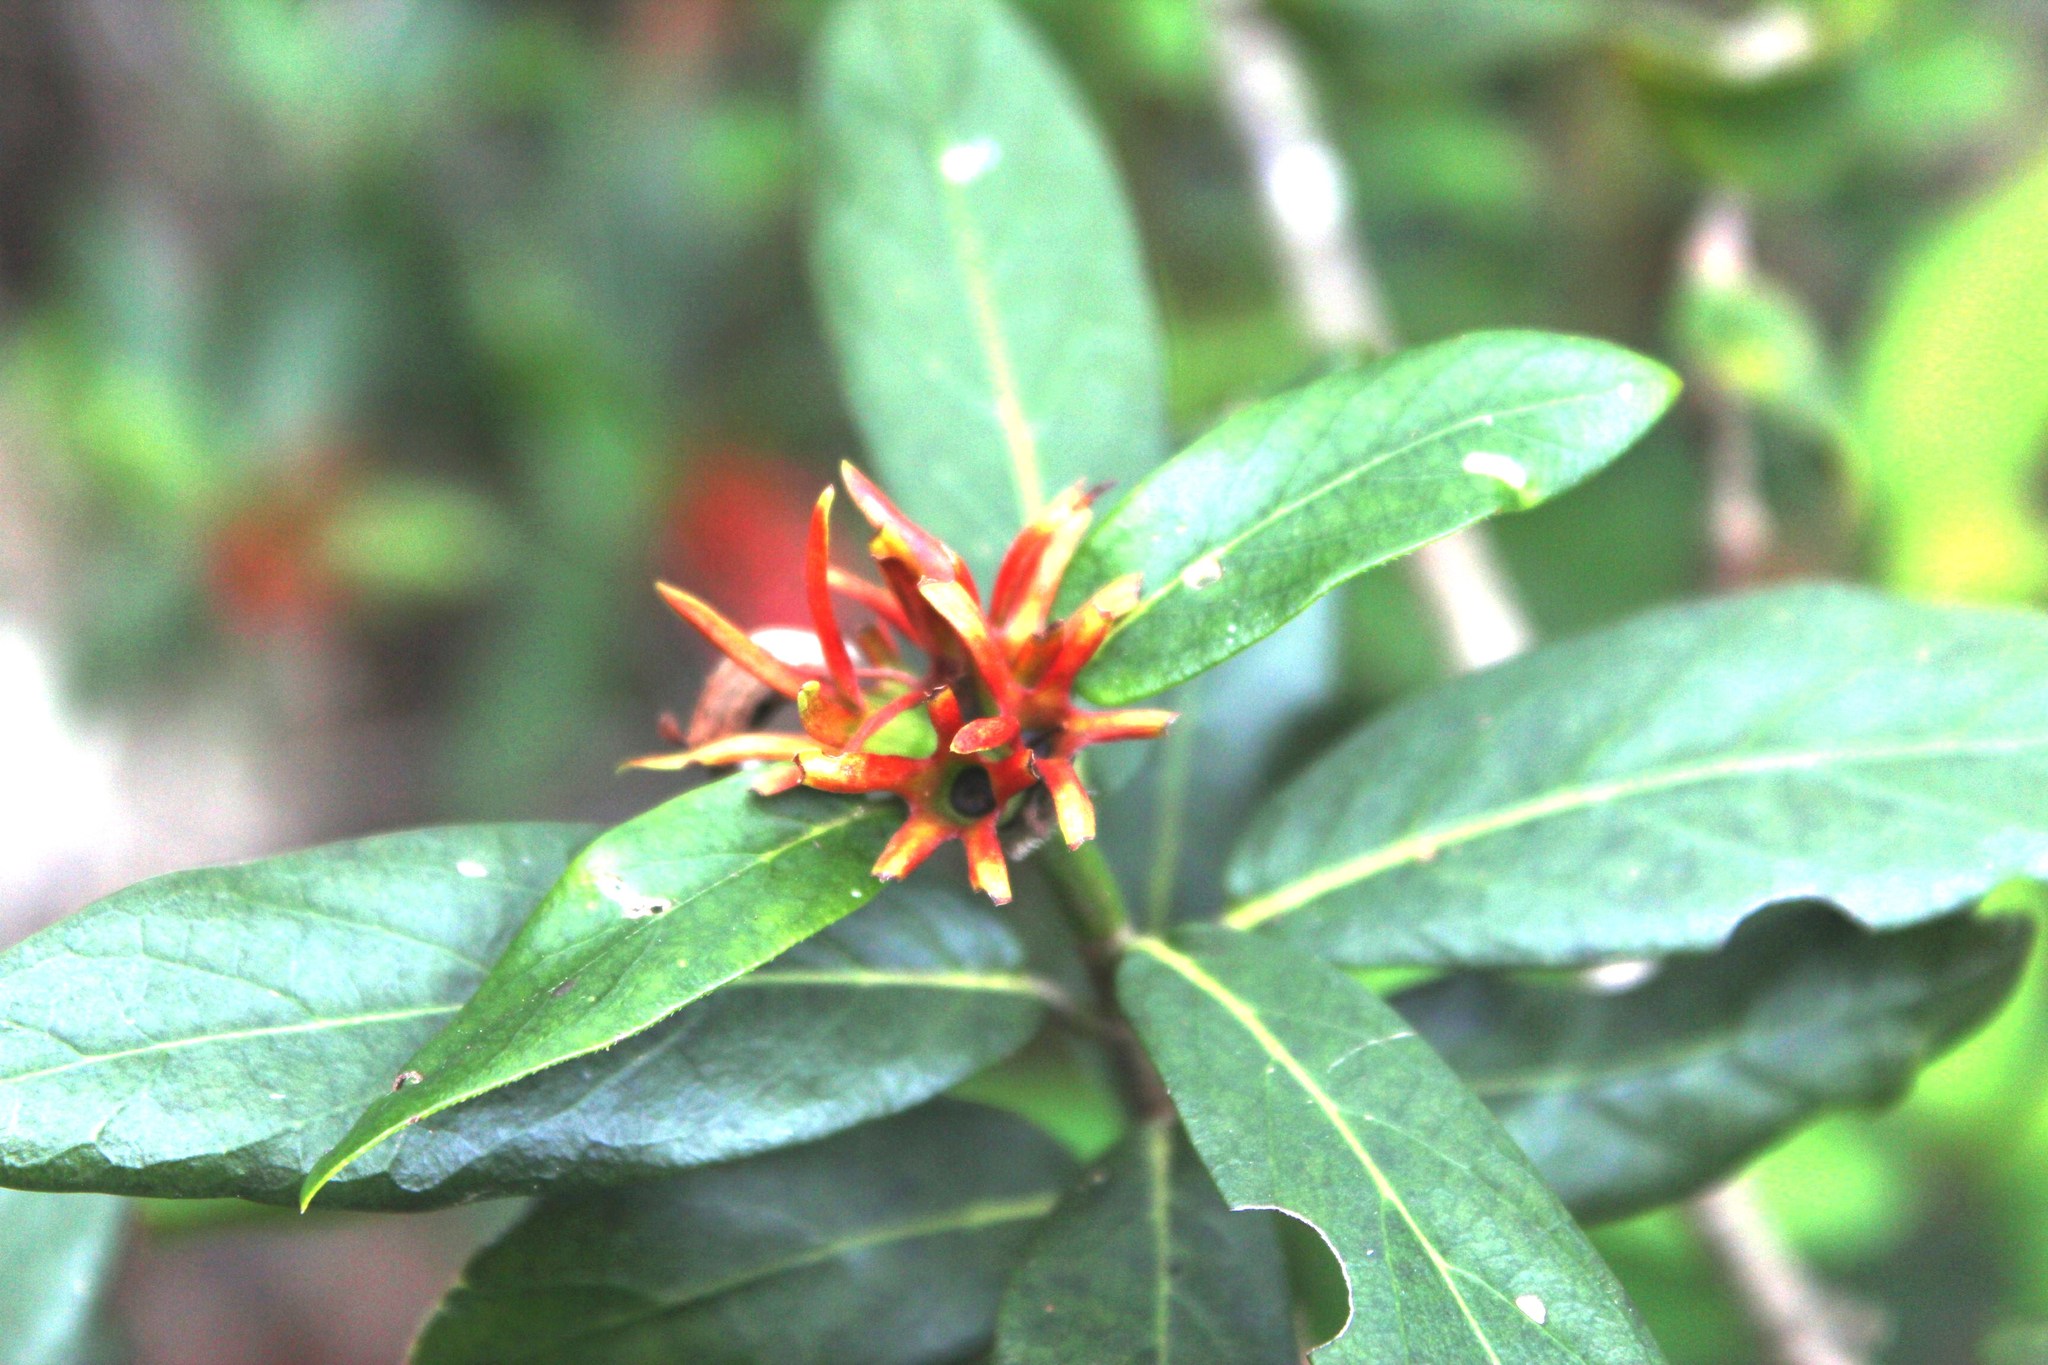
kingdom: Plantae
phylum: Tracheophyta
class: Magnoliopsida
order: Gentianales
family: Rubiaceae
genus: Burchellia
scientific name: Burchellia bubalina
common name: Wild pomegranate
